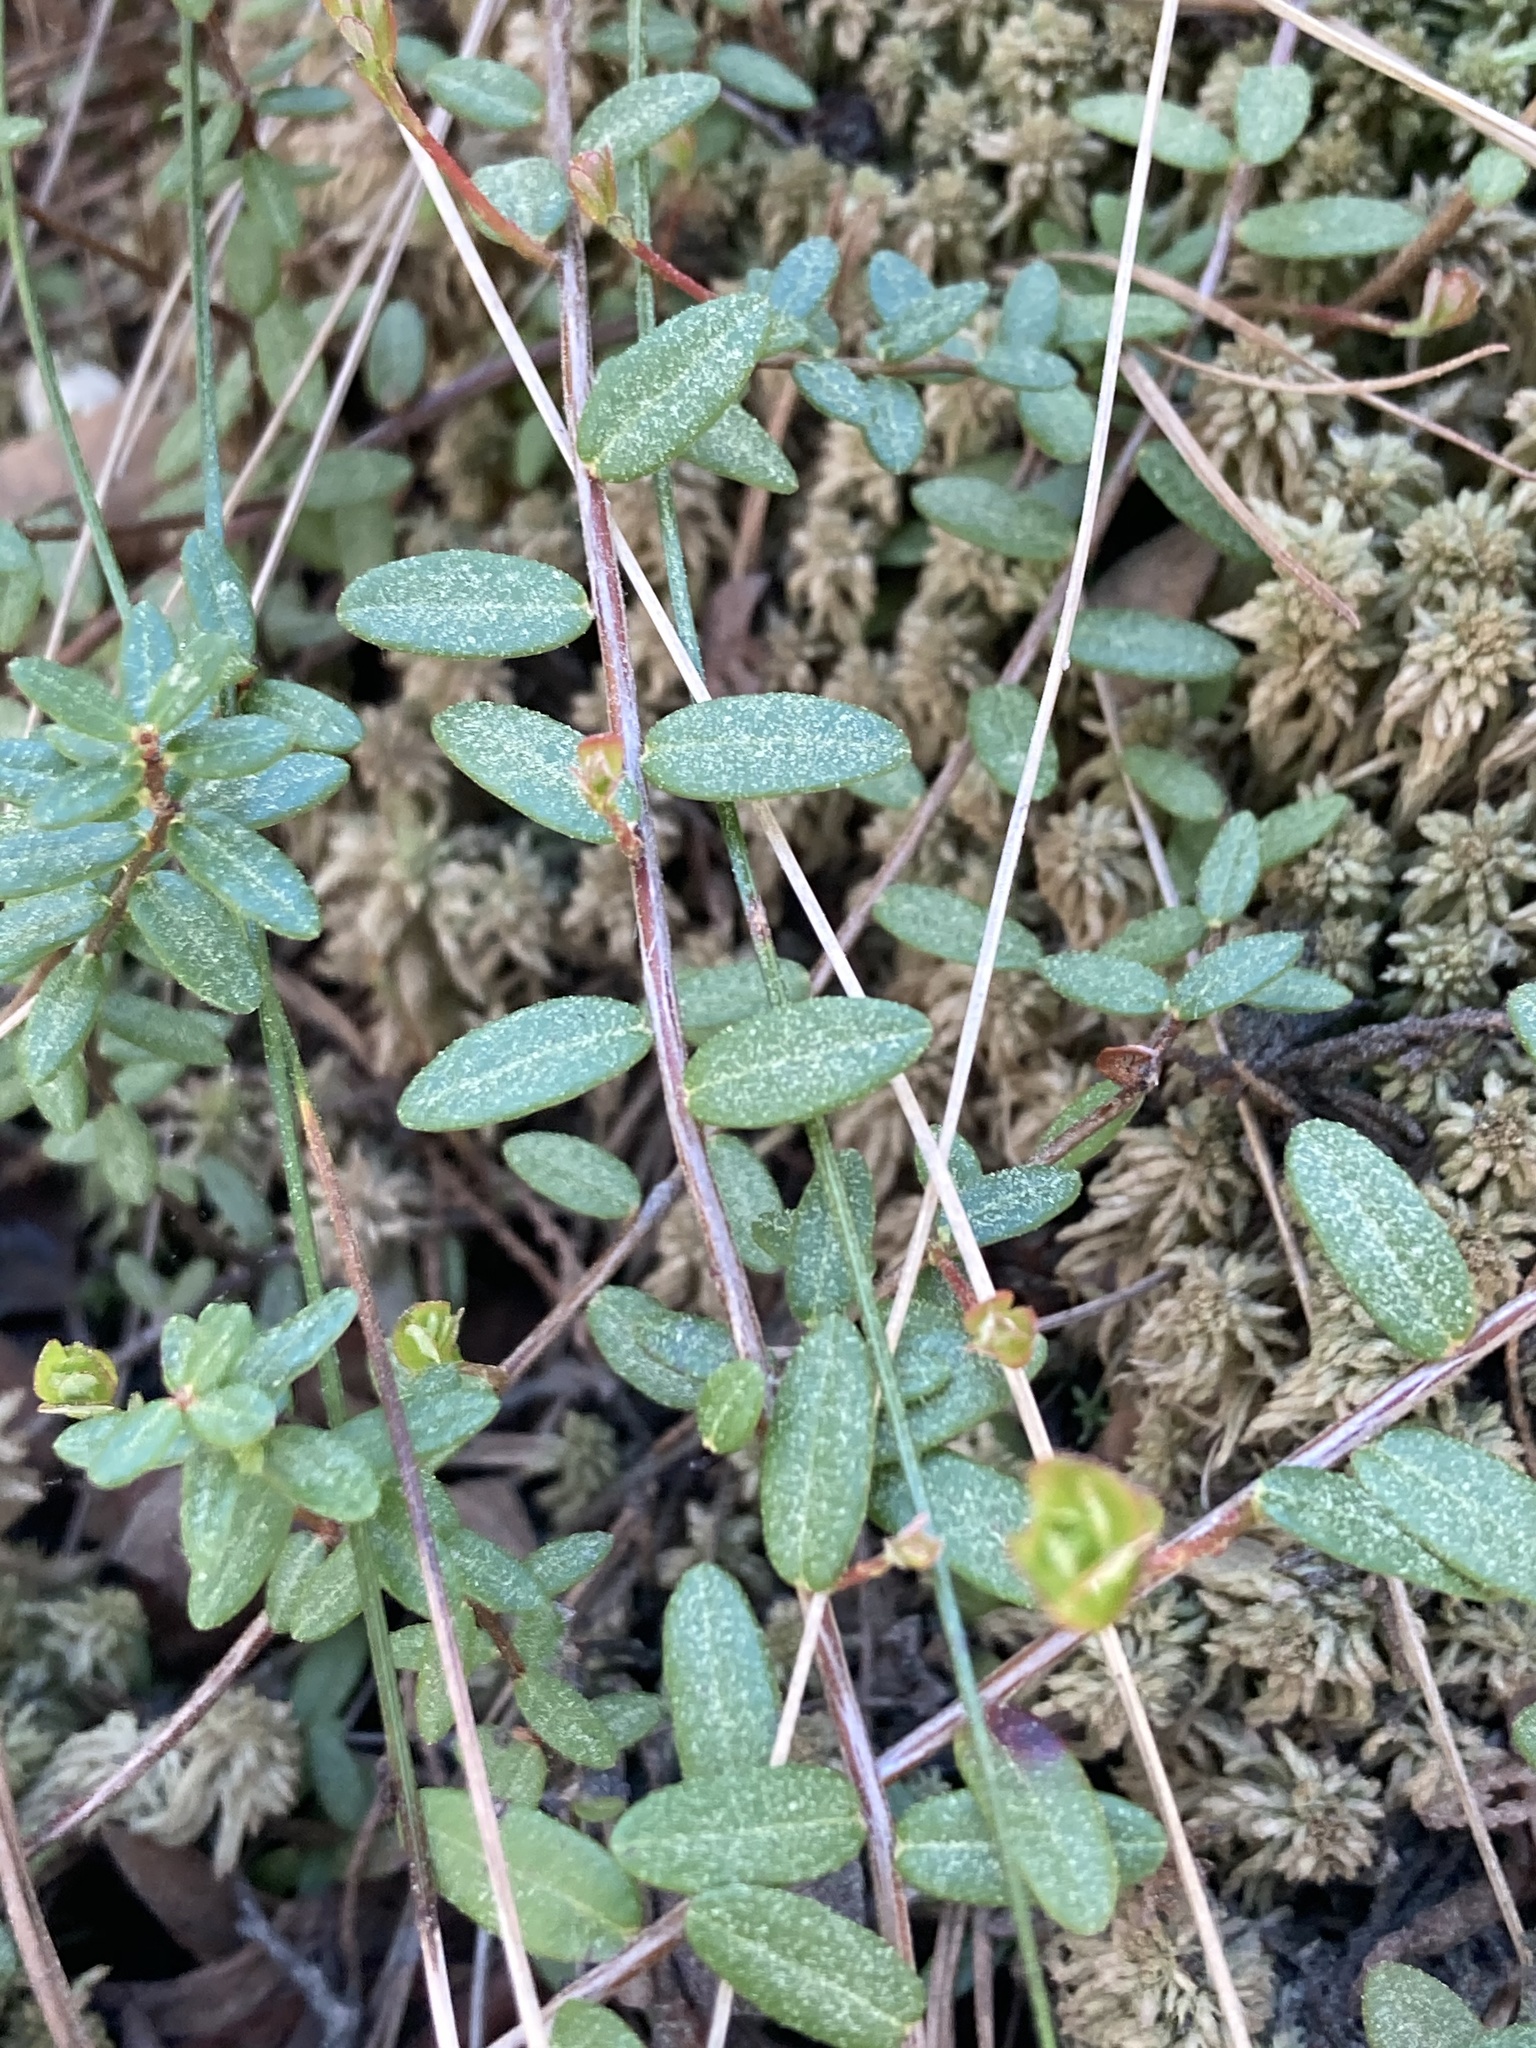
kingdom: Plantae
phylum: Tracheophyta
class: Magnoliopsida
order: Ericales
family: Ericaceae
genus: Vaccinium
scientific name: Vaccinium macrocarpon
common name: American cranberry
